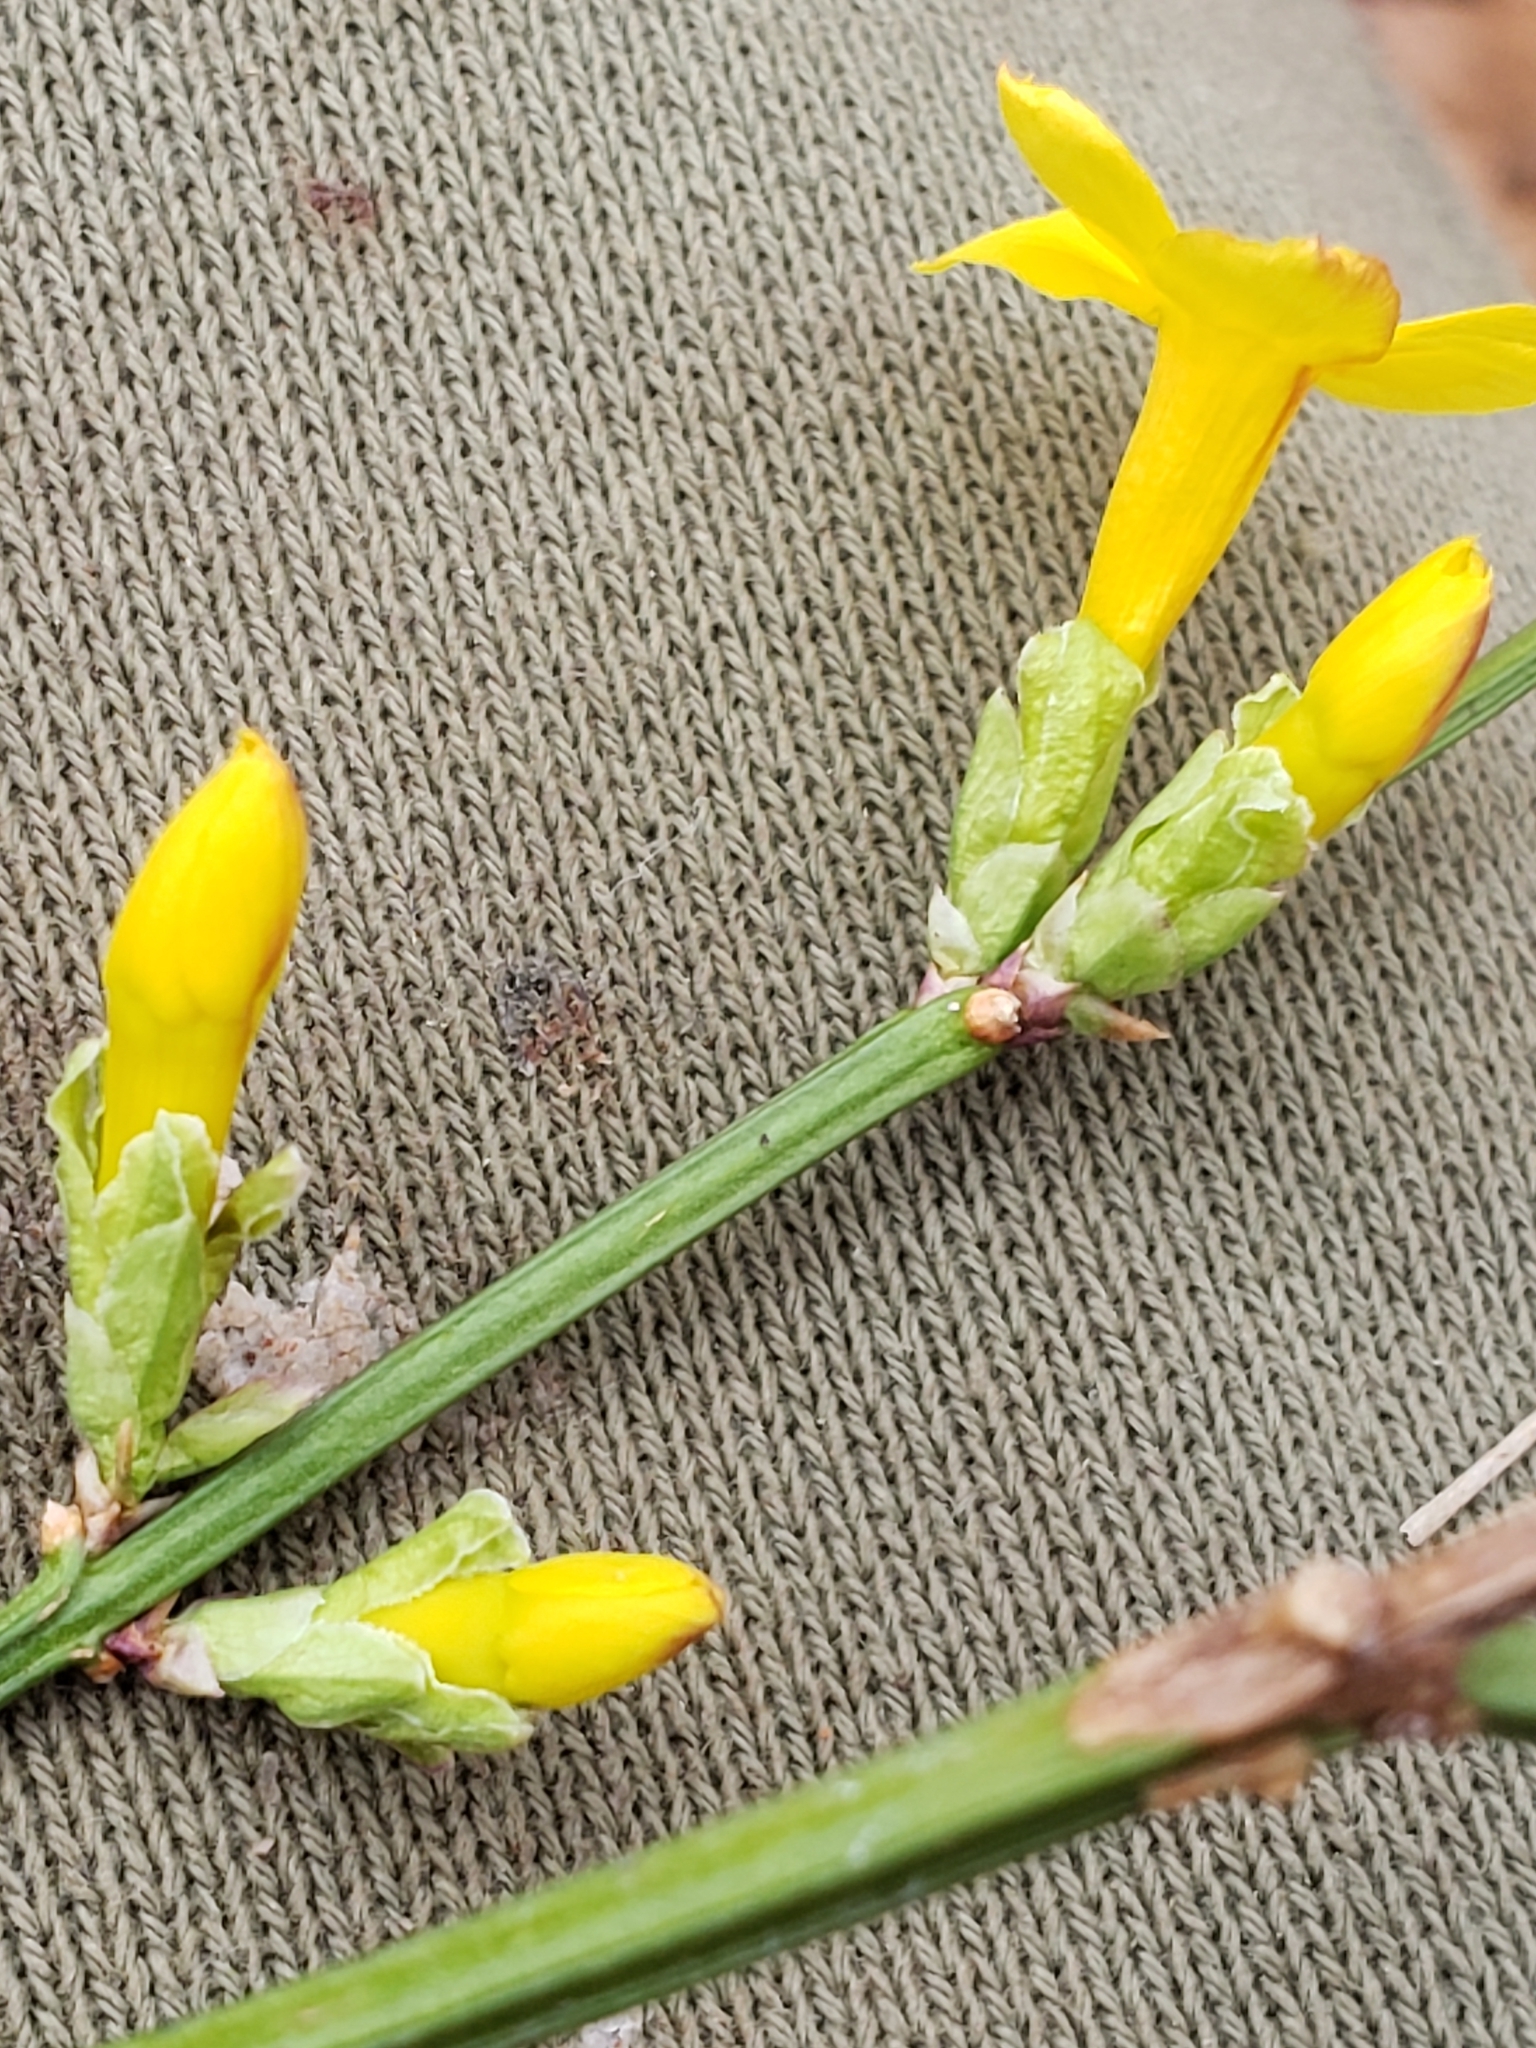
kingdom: Plantae
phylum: Tracheophyta
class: Magnoliopsida
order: Lamiales
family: Oleaceae
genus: Jasminum
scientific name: Jasminum nudiflorum
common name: Winter jasmine
